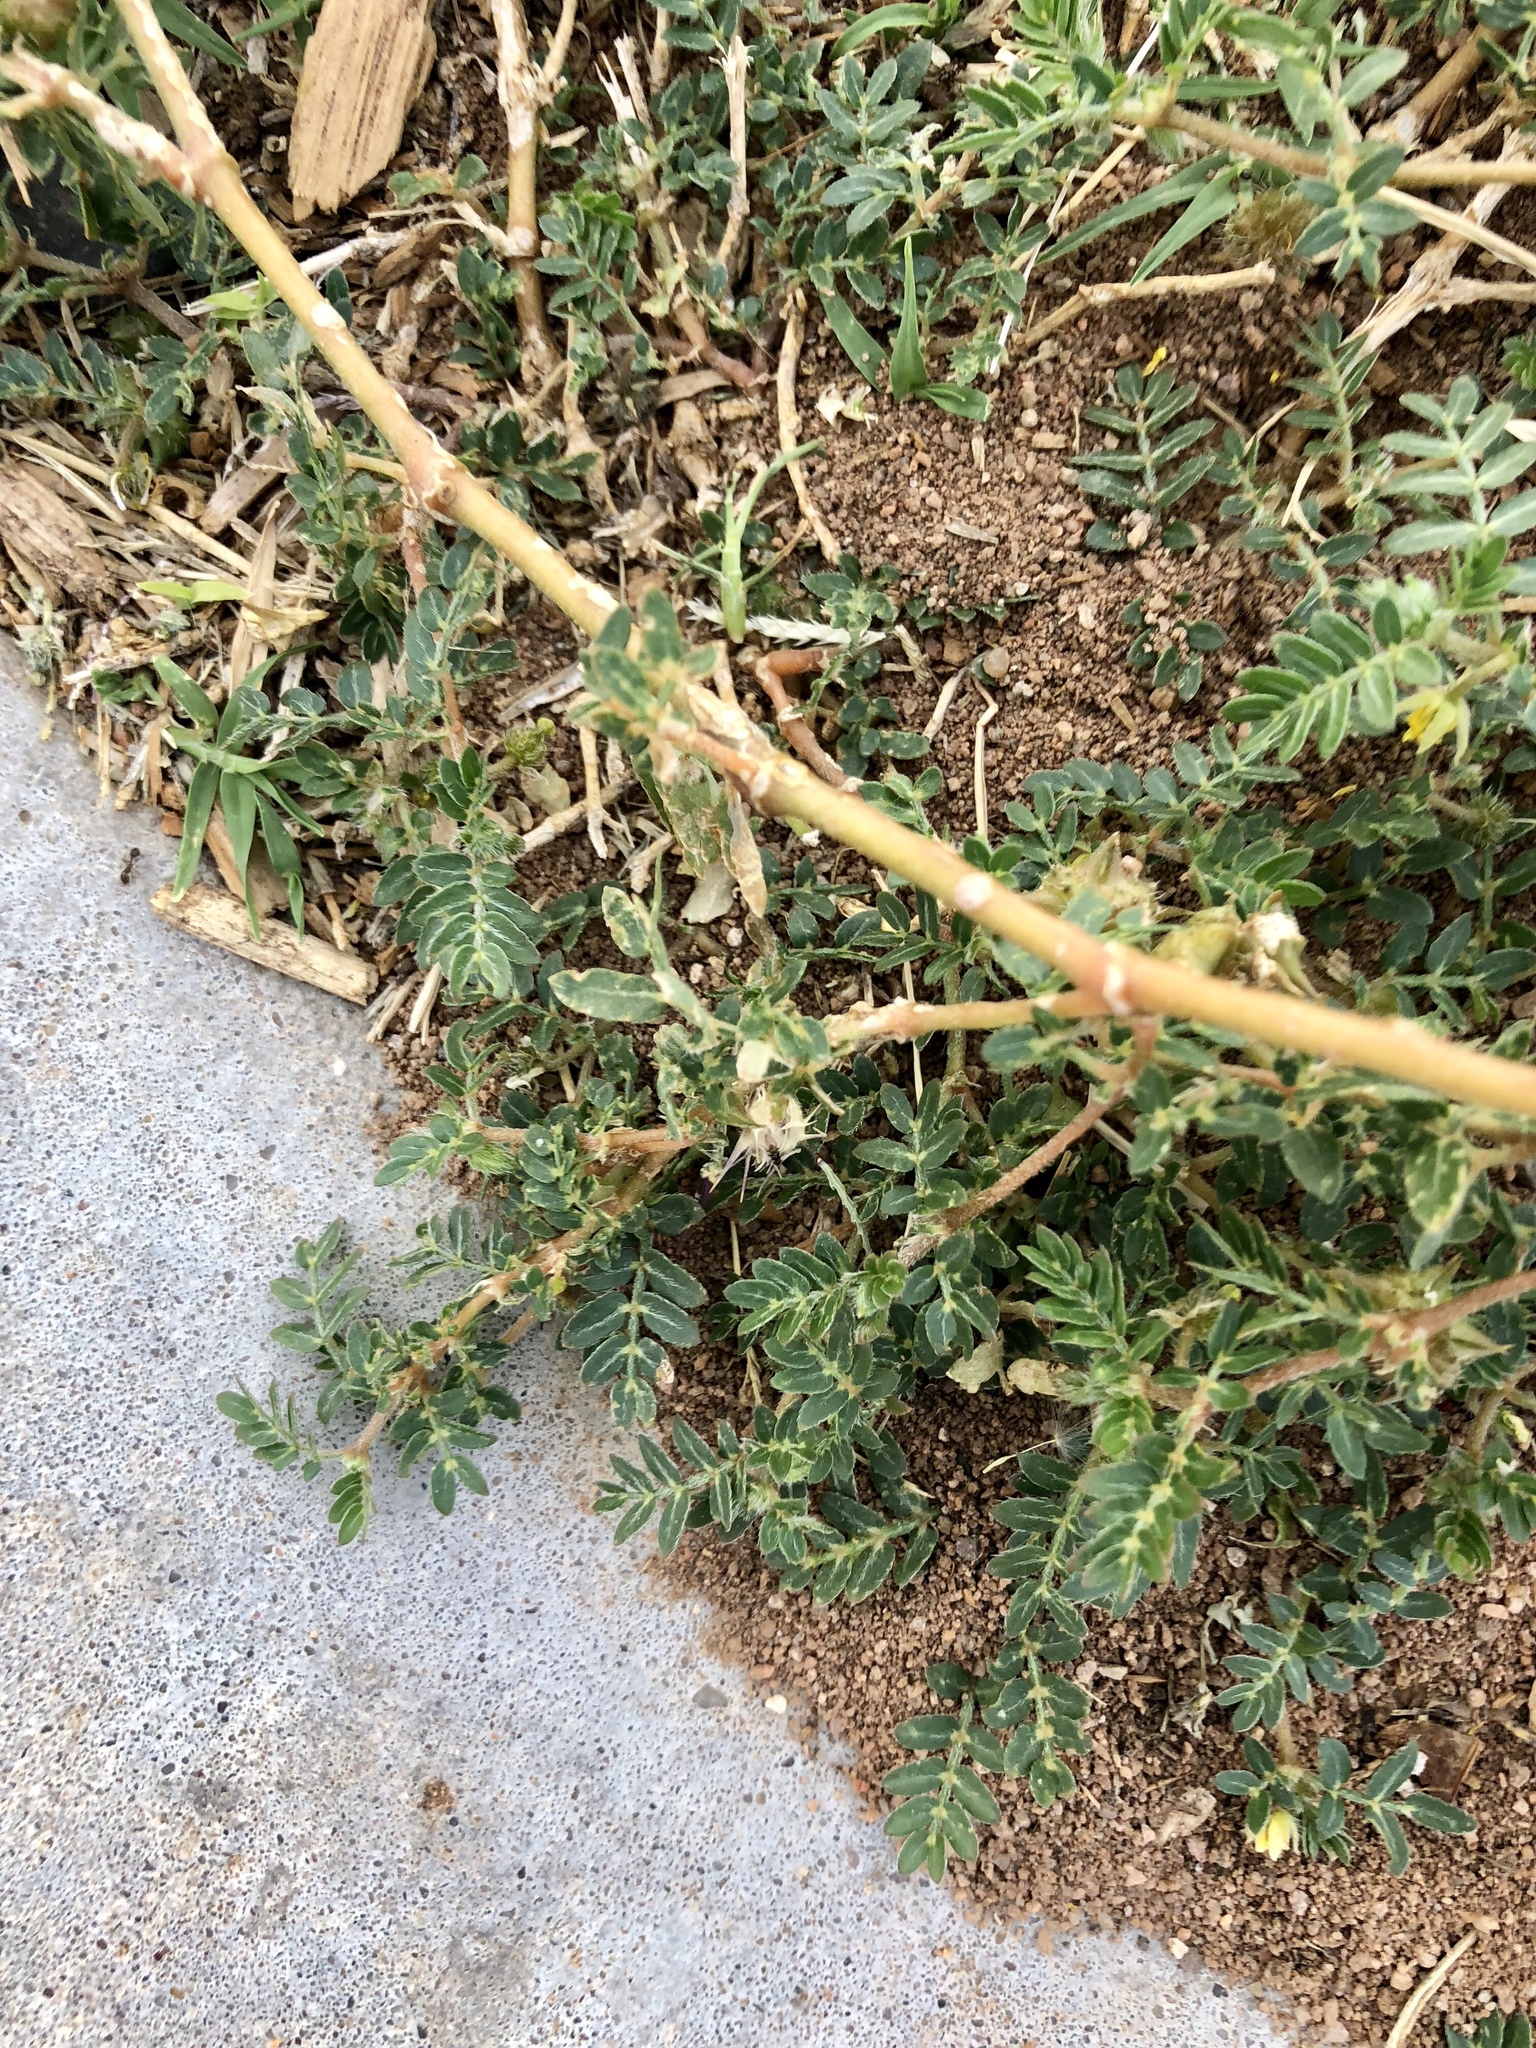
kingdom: Plantae
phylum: Tracheophyta
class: Magnoliopsida
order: Zygophyllales
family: Zygophyllaceae
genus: Tribulus
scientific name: Tribulus terrestris
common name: Puncturevine
